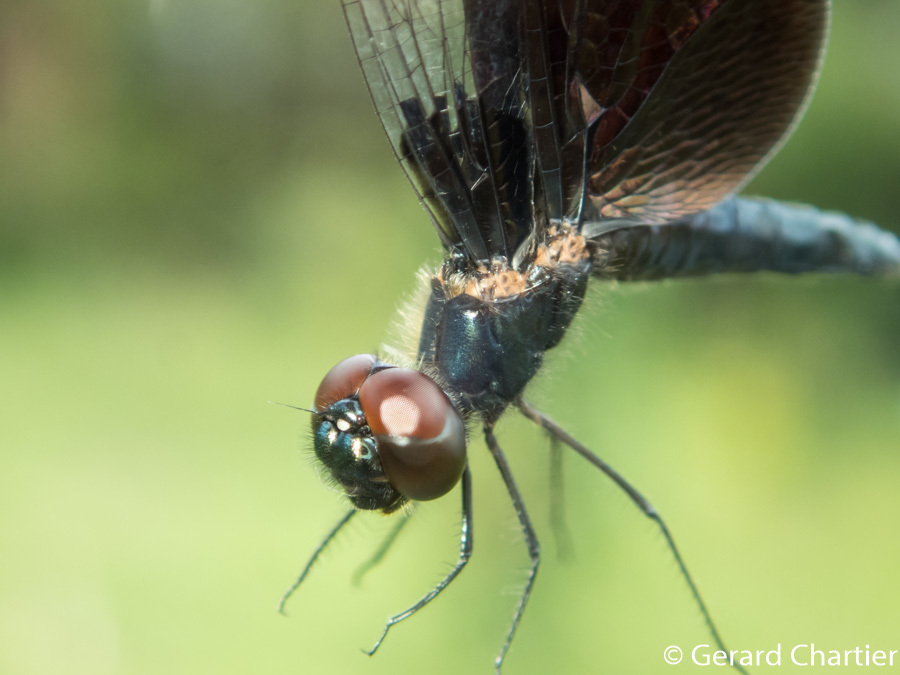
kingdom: Animalia
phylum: Arthropoda
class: Insecta
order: Odonata
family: Libellulidae
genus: Rhyothemis
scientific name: Rhyothemis triangularis
